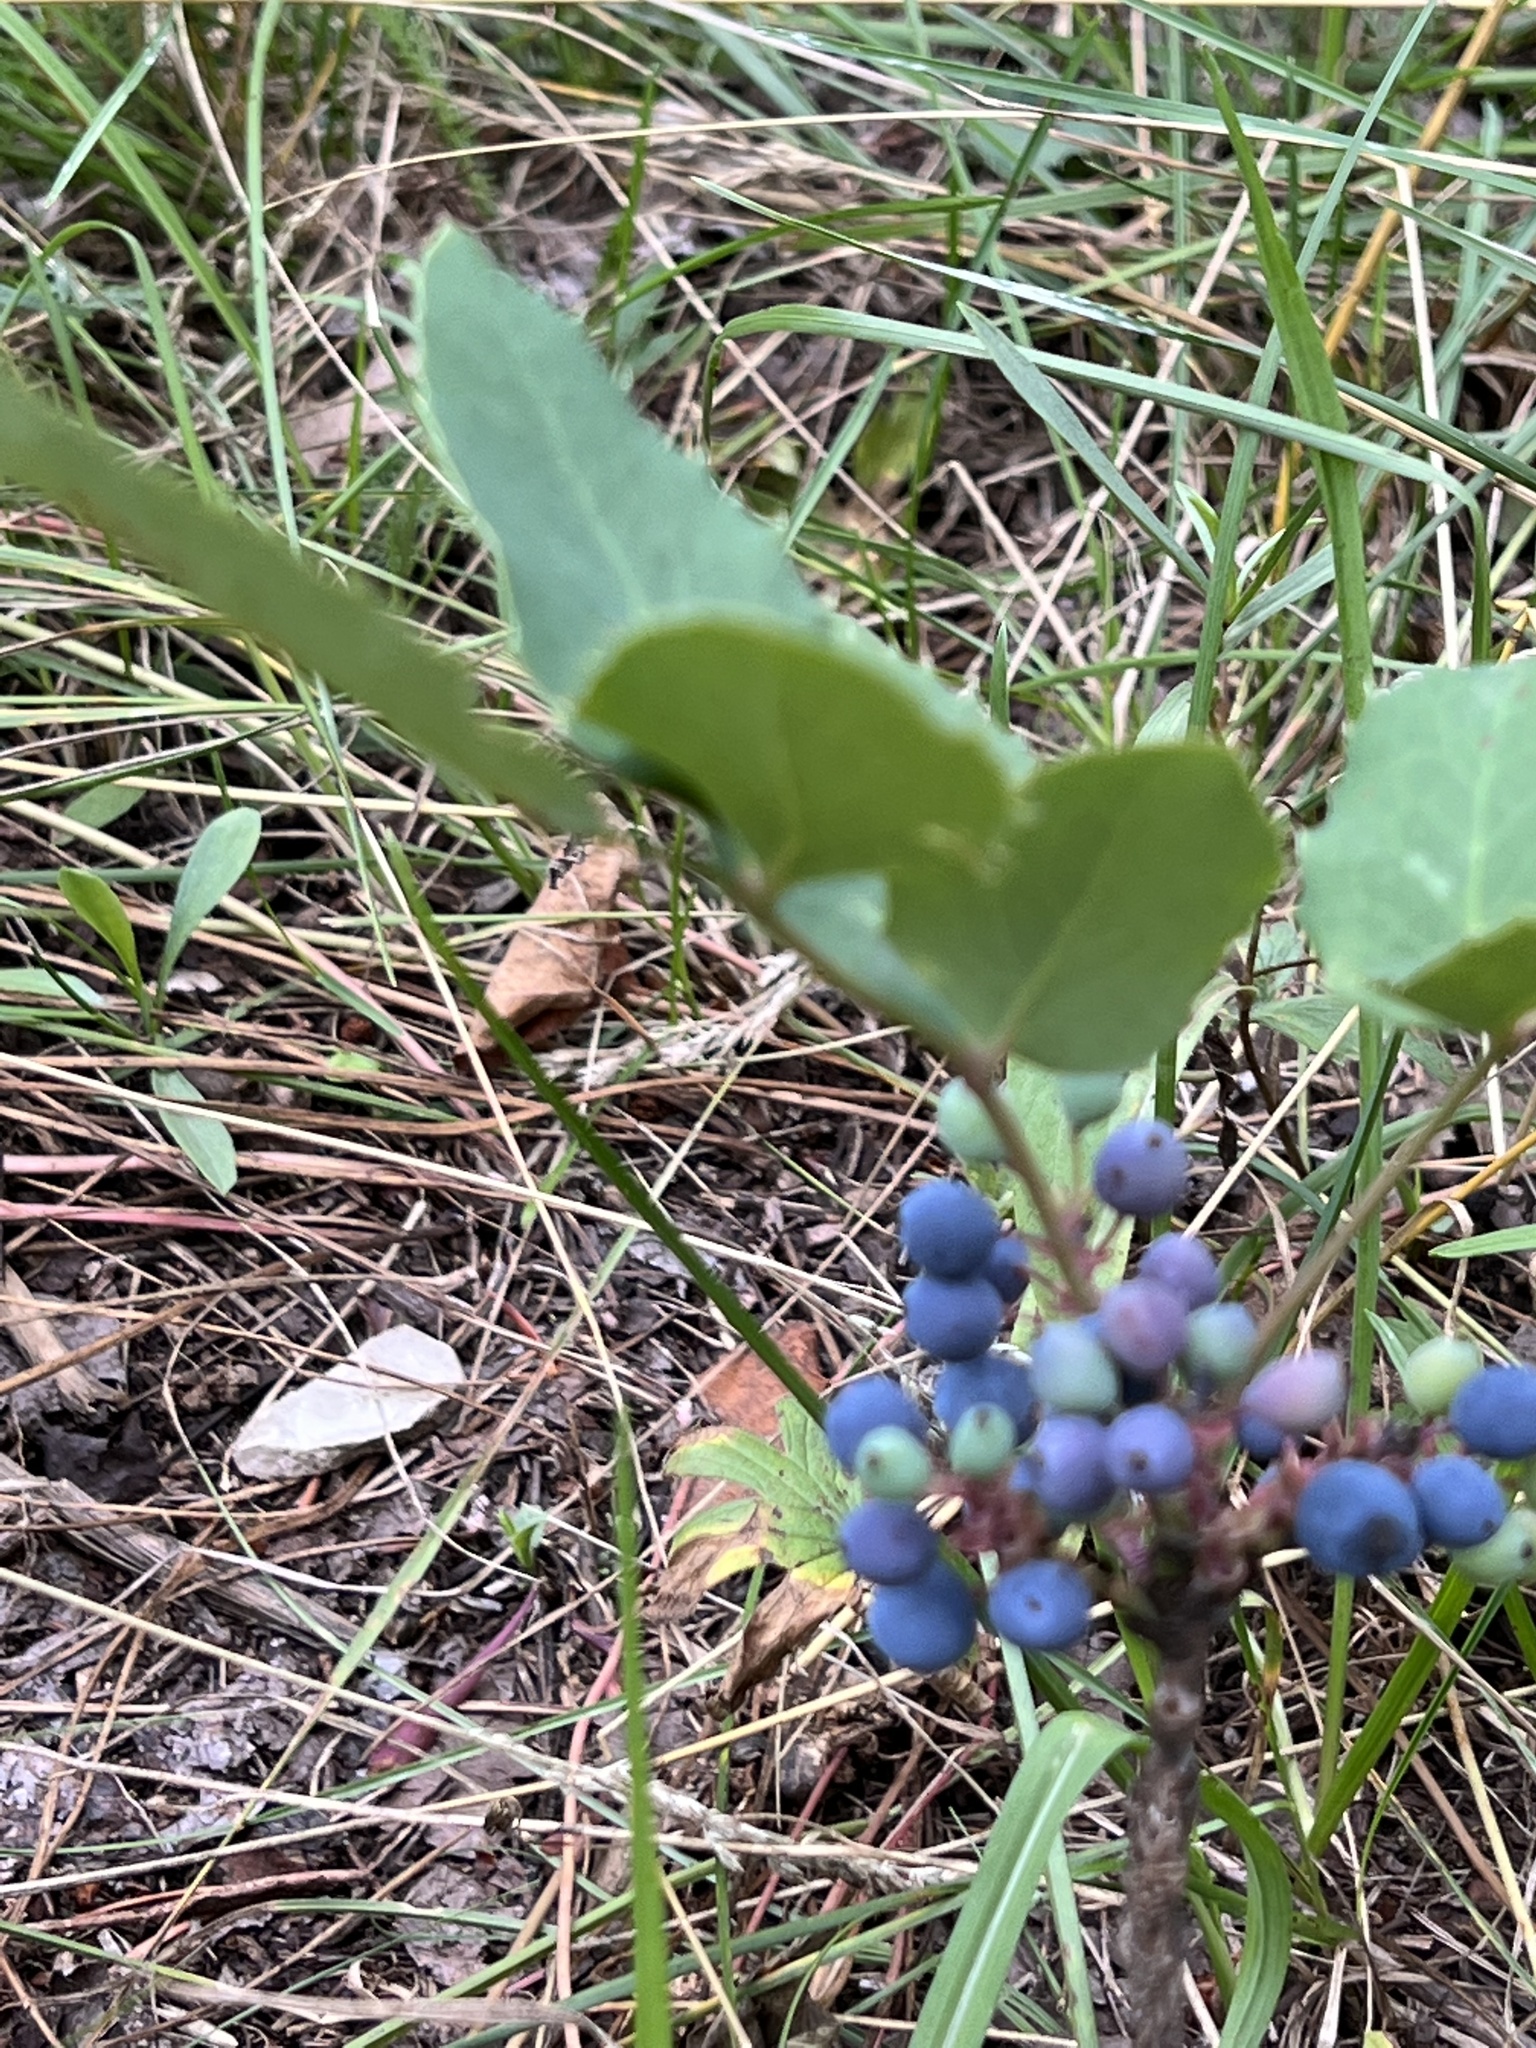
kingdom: Plantae
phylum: Tracheophyta
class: Magnoliopsida
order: Ranunculales
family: Berberidaceae
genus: Mahonia
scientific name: Mahonia repens
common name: Creeping oregon-grape
